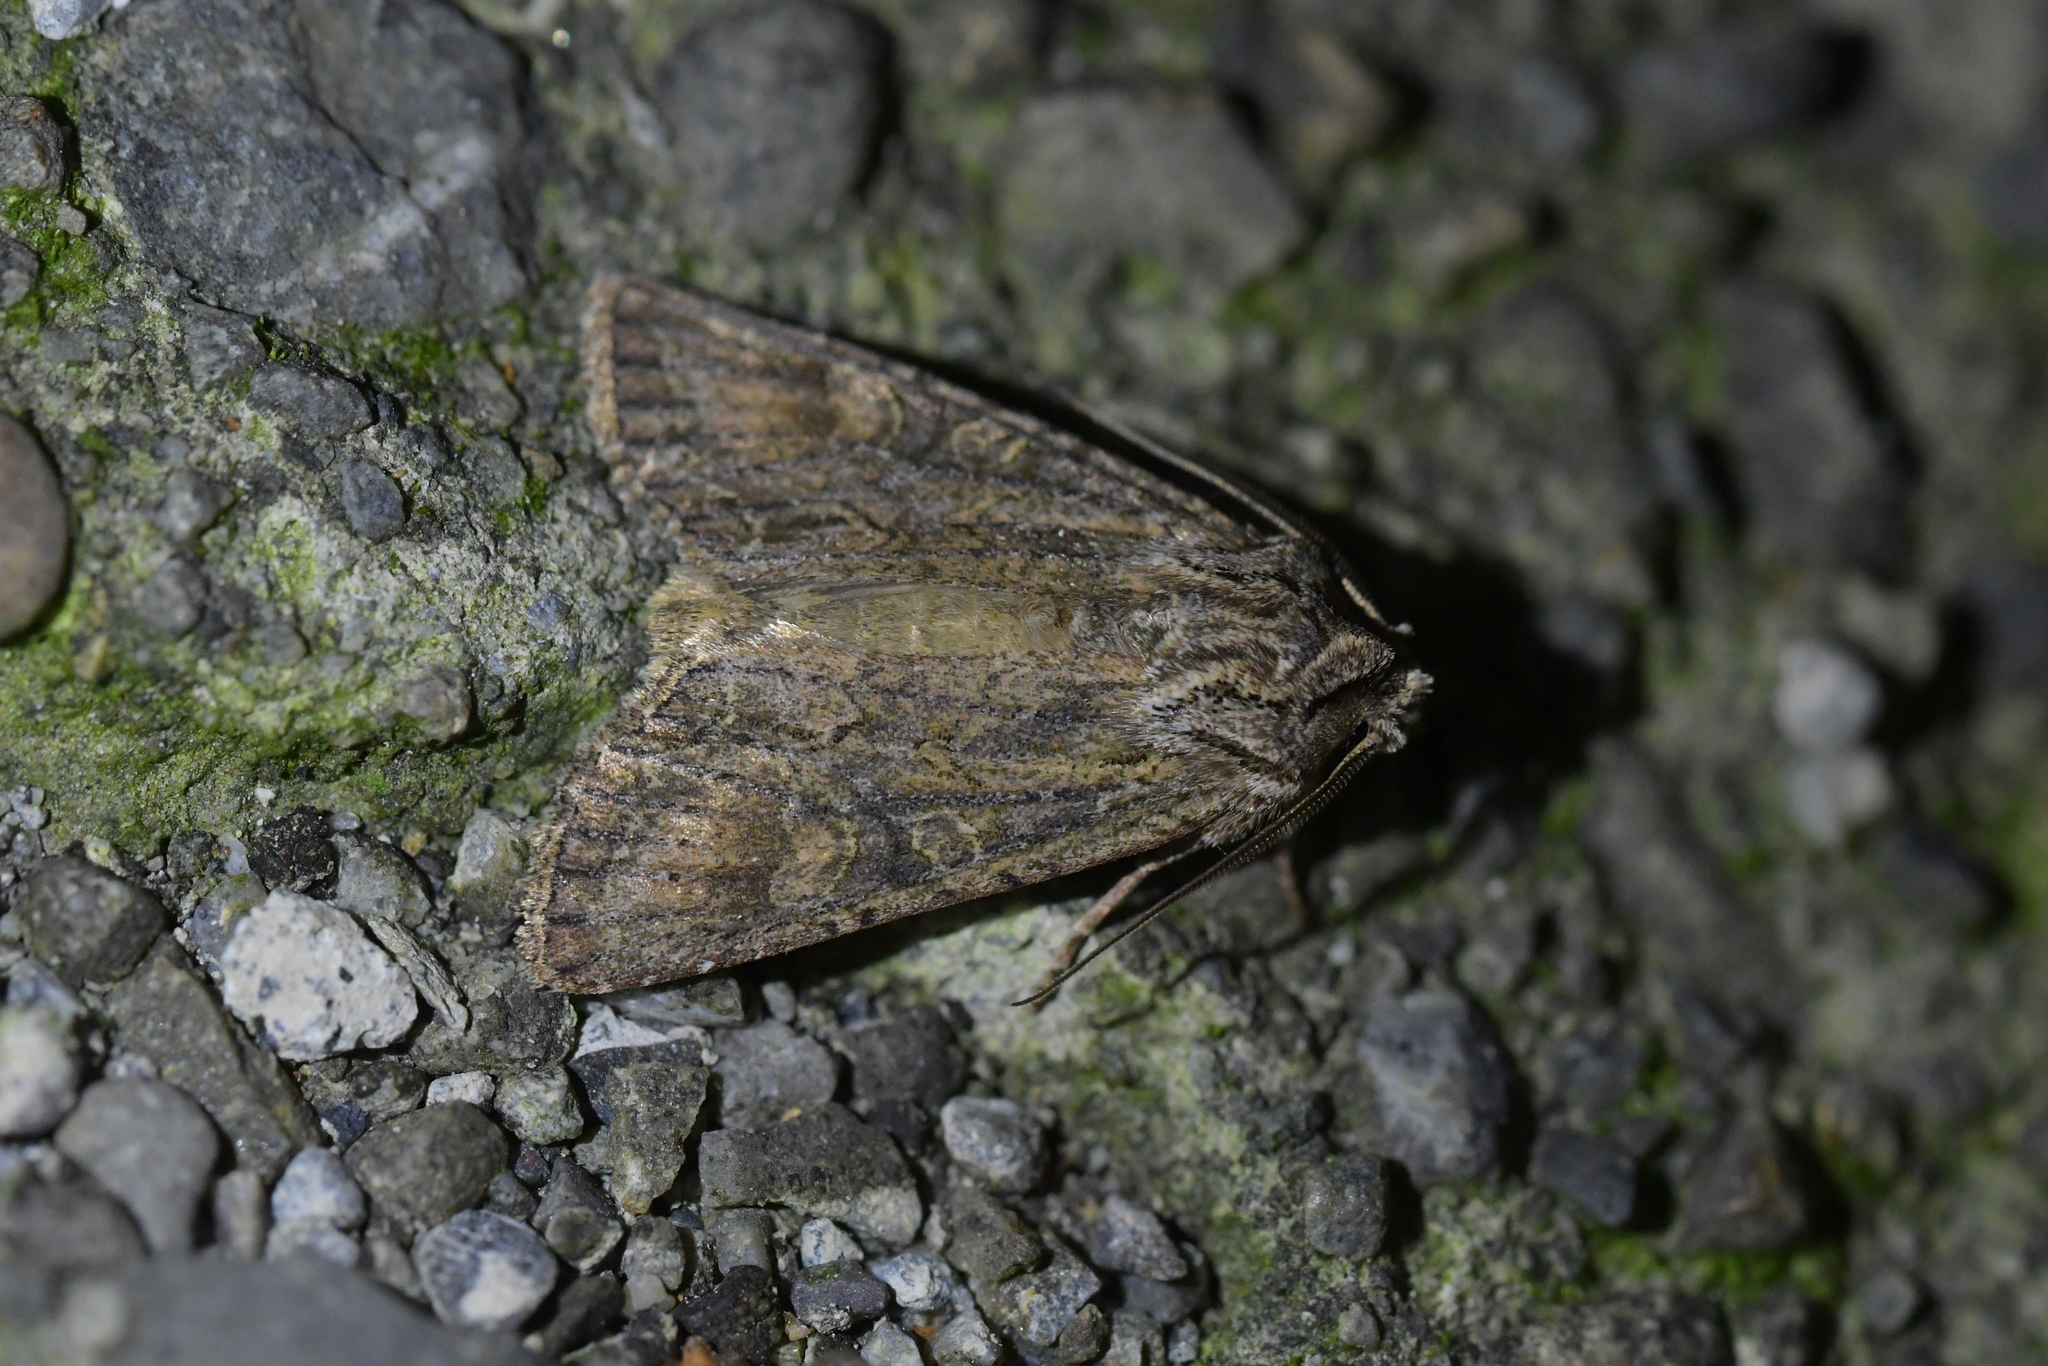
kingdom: Animalia
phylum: Arthropoda
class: Insecta
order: Lepidoptera
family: Noctuidae
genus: Ichneutica
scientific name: Ichneutica mutans
